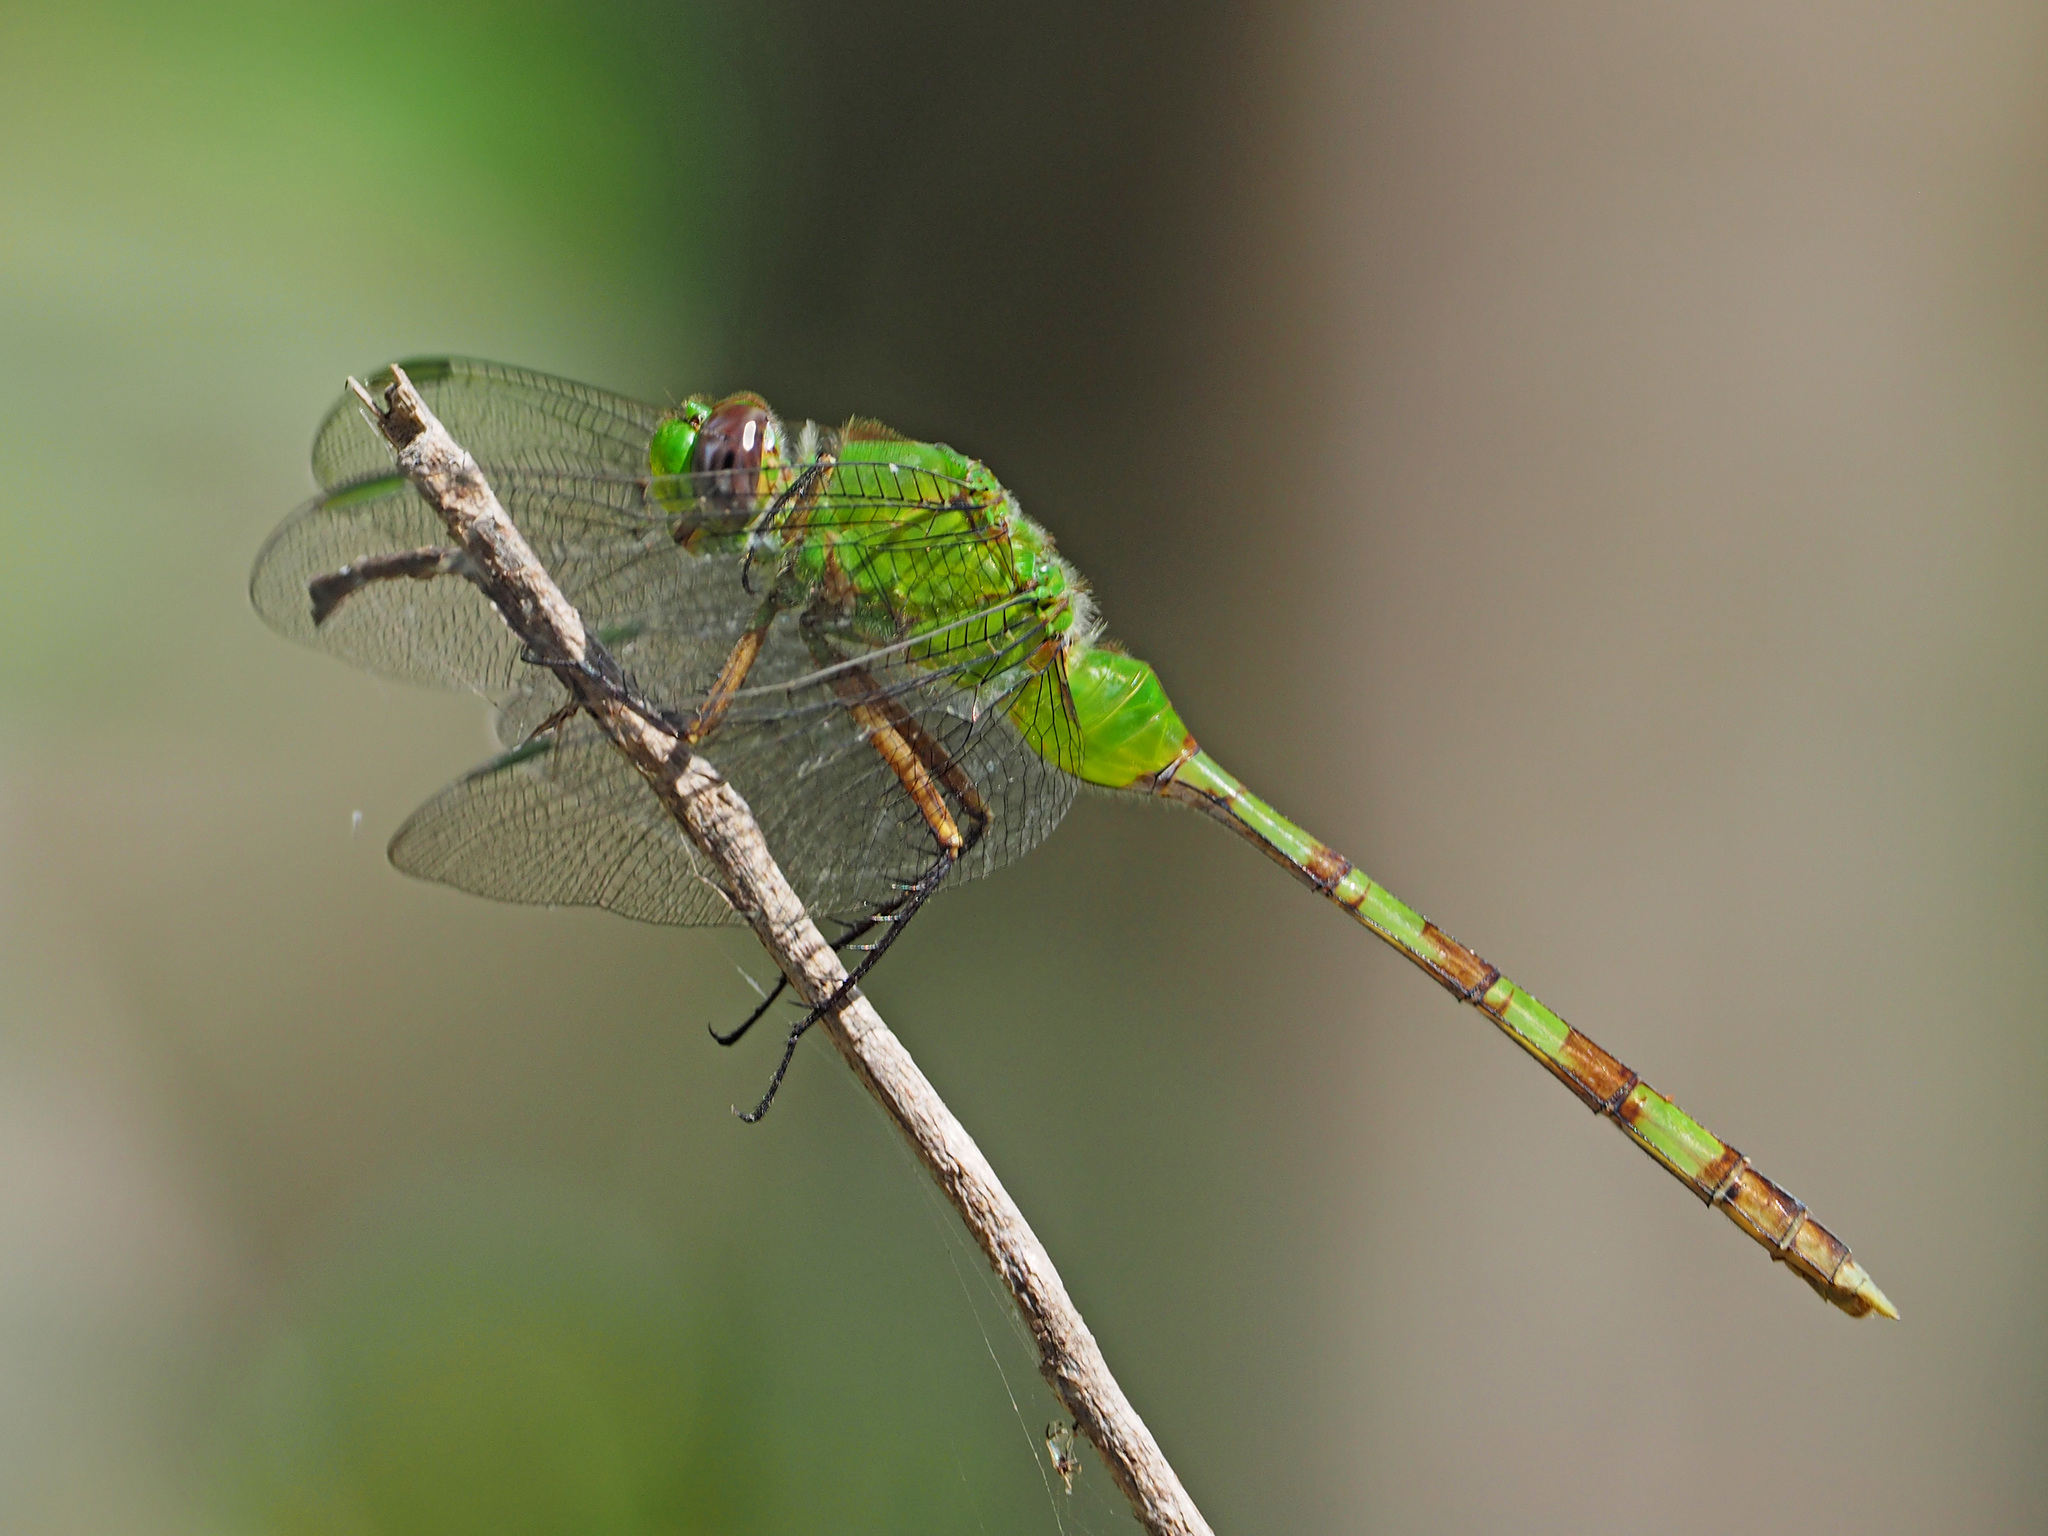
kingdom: Animalia
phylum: Arthropoda
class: Insecta
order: Odonata
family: Libellulidae
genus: Erythemis
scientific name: Erythemis vesiculosa
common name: Great pondhawk
